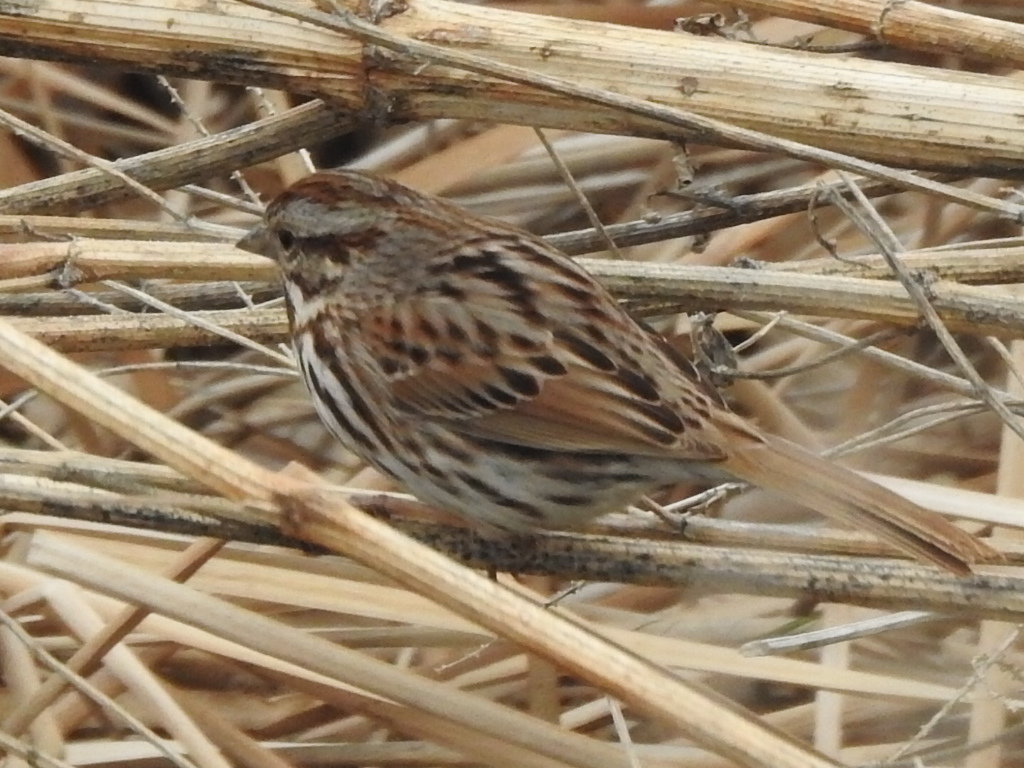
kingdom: Animalia
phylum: Chordata
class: Aves
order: Passeriformes
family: Passerellidae
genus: Melospiza
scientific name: Melospiza melodia
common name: Song sparrow
